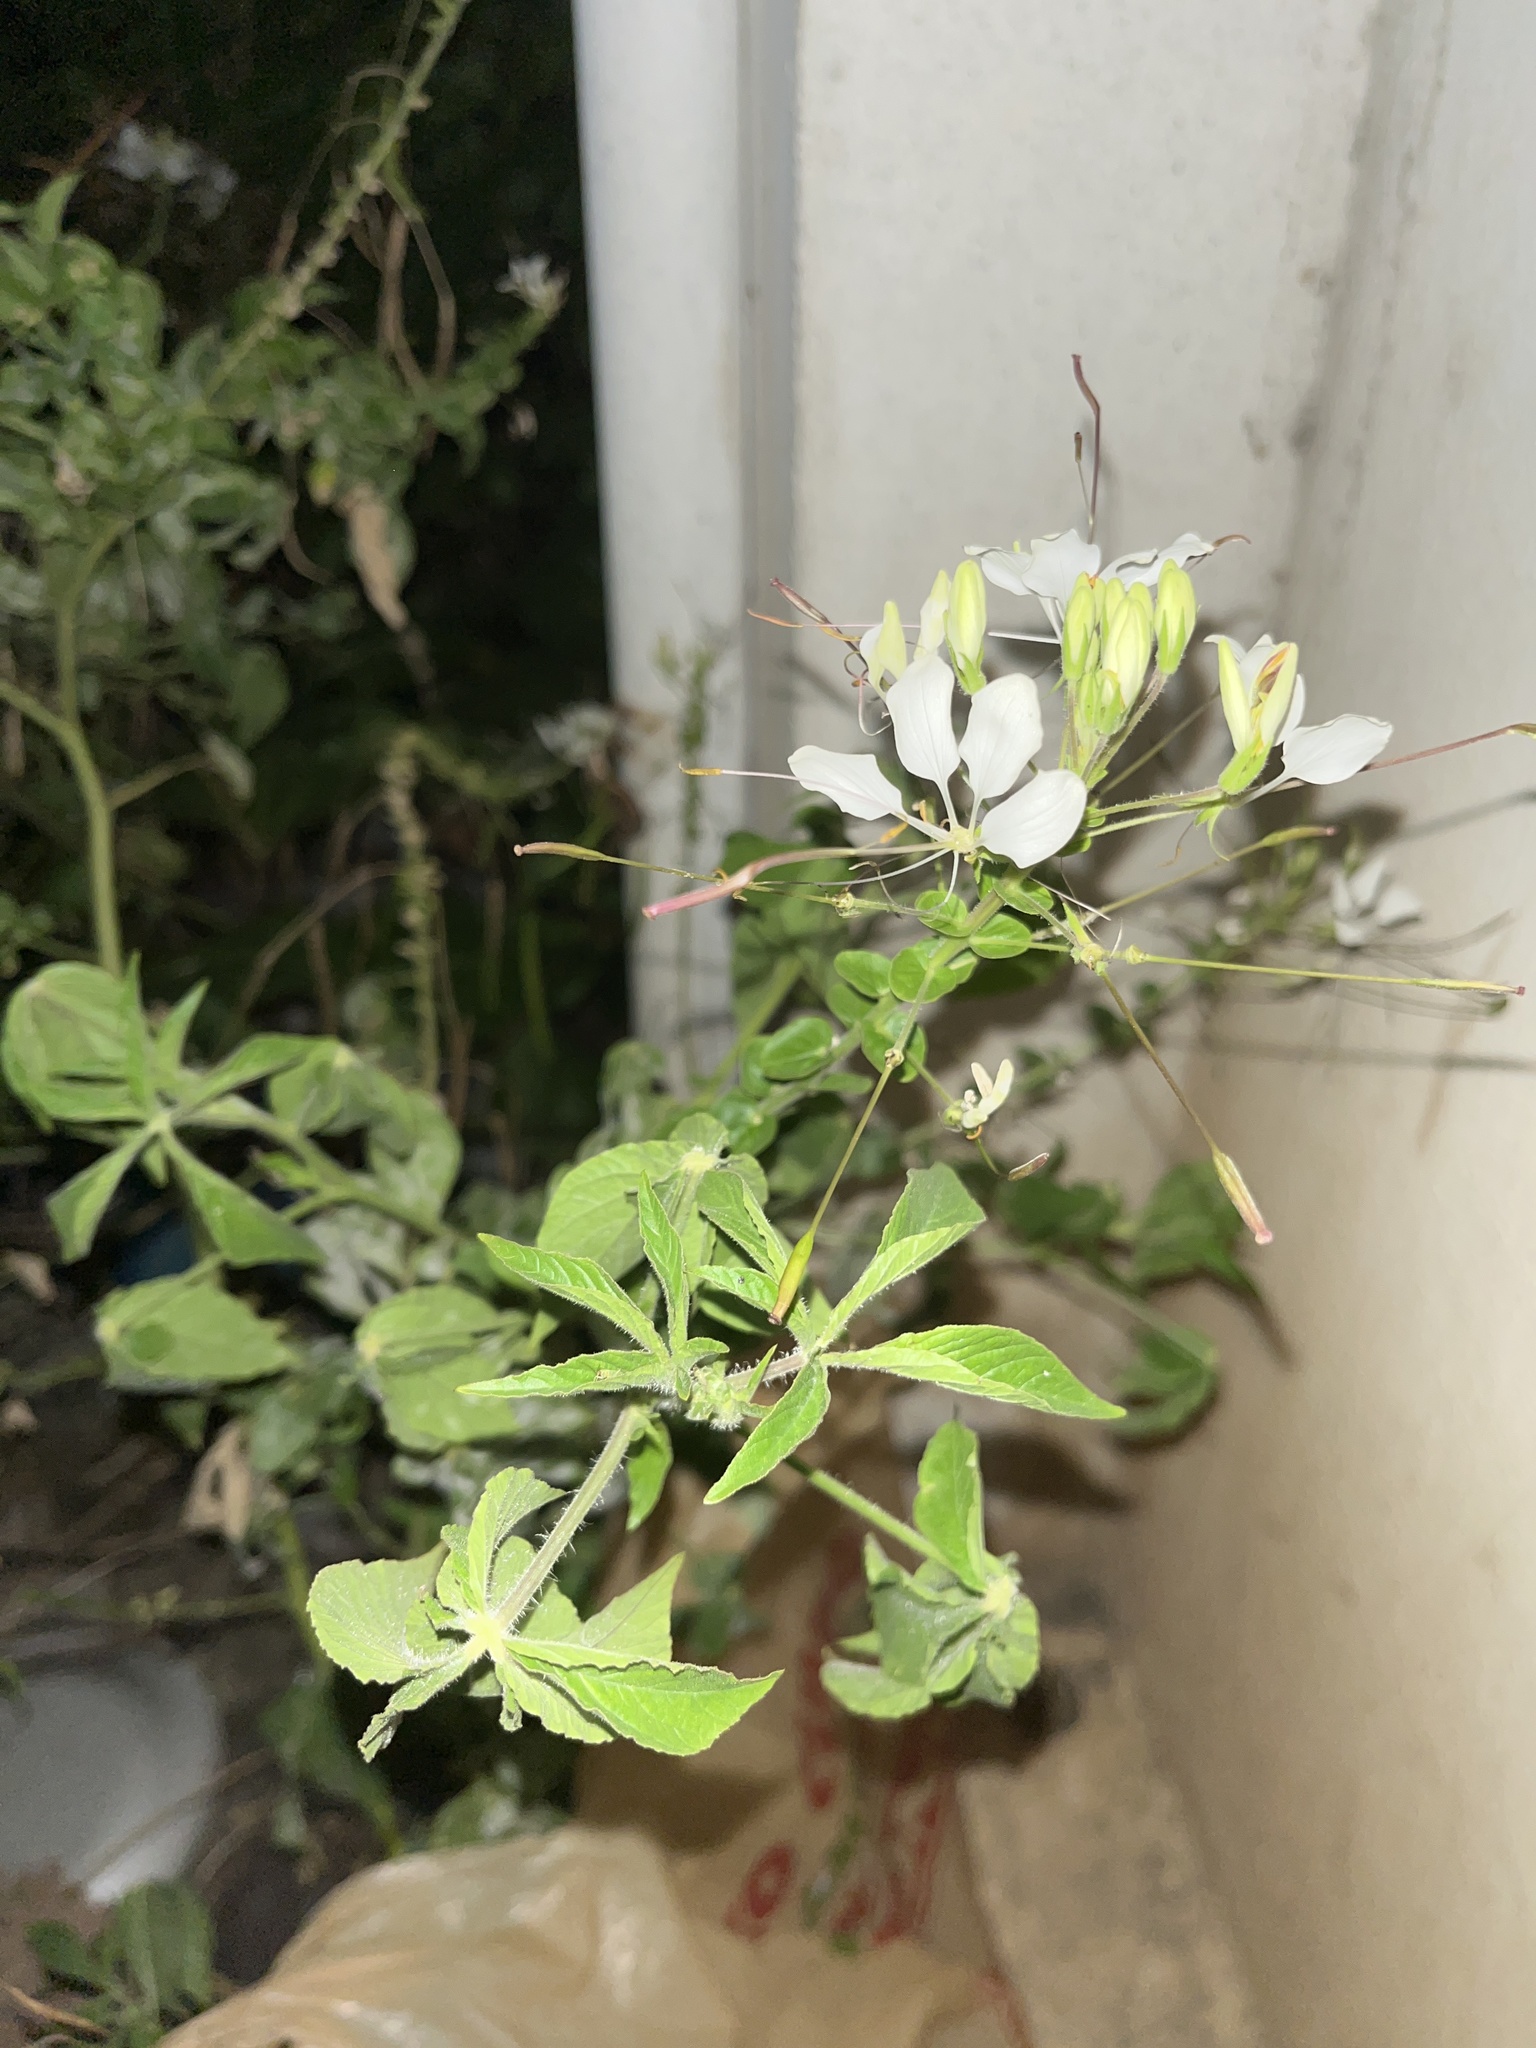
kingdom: Plantae
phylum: Tracheophyta
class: Magnoliopsida
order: Brassicales
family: Cleomaceae
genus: Gynandropsis
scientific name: Gynandropsis gynandra
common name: Spiderwisp
